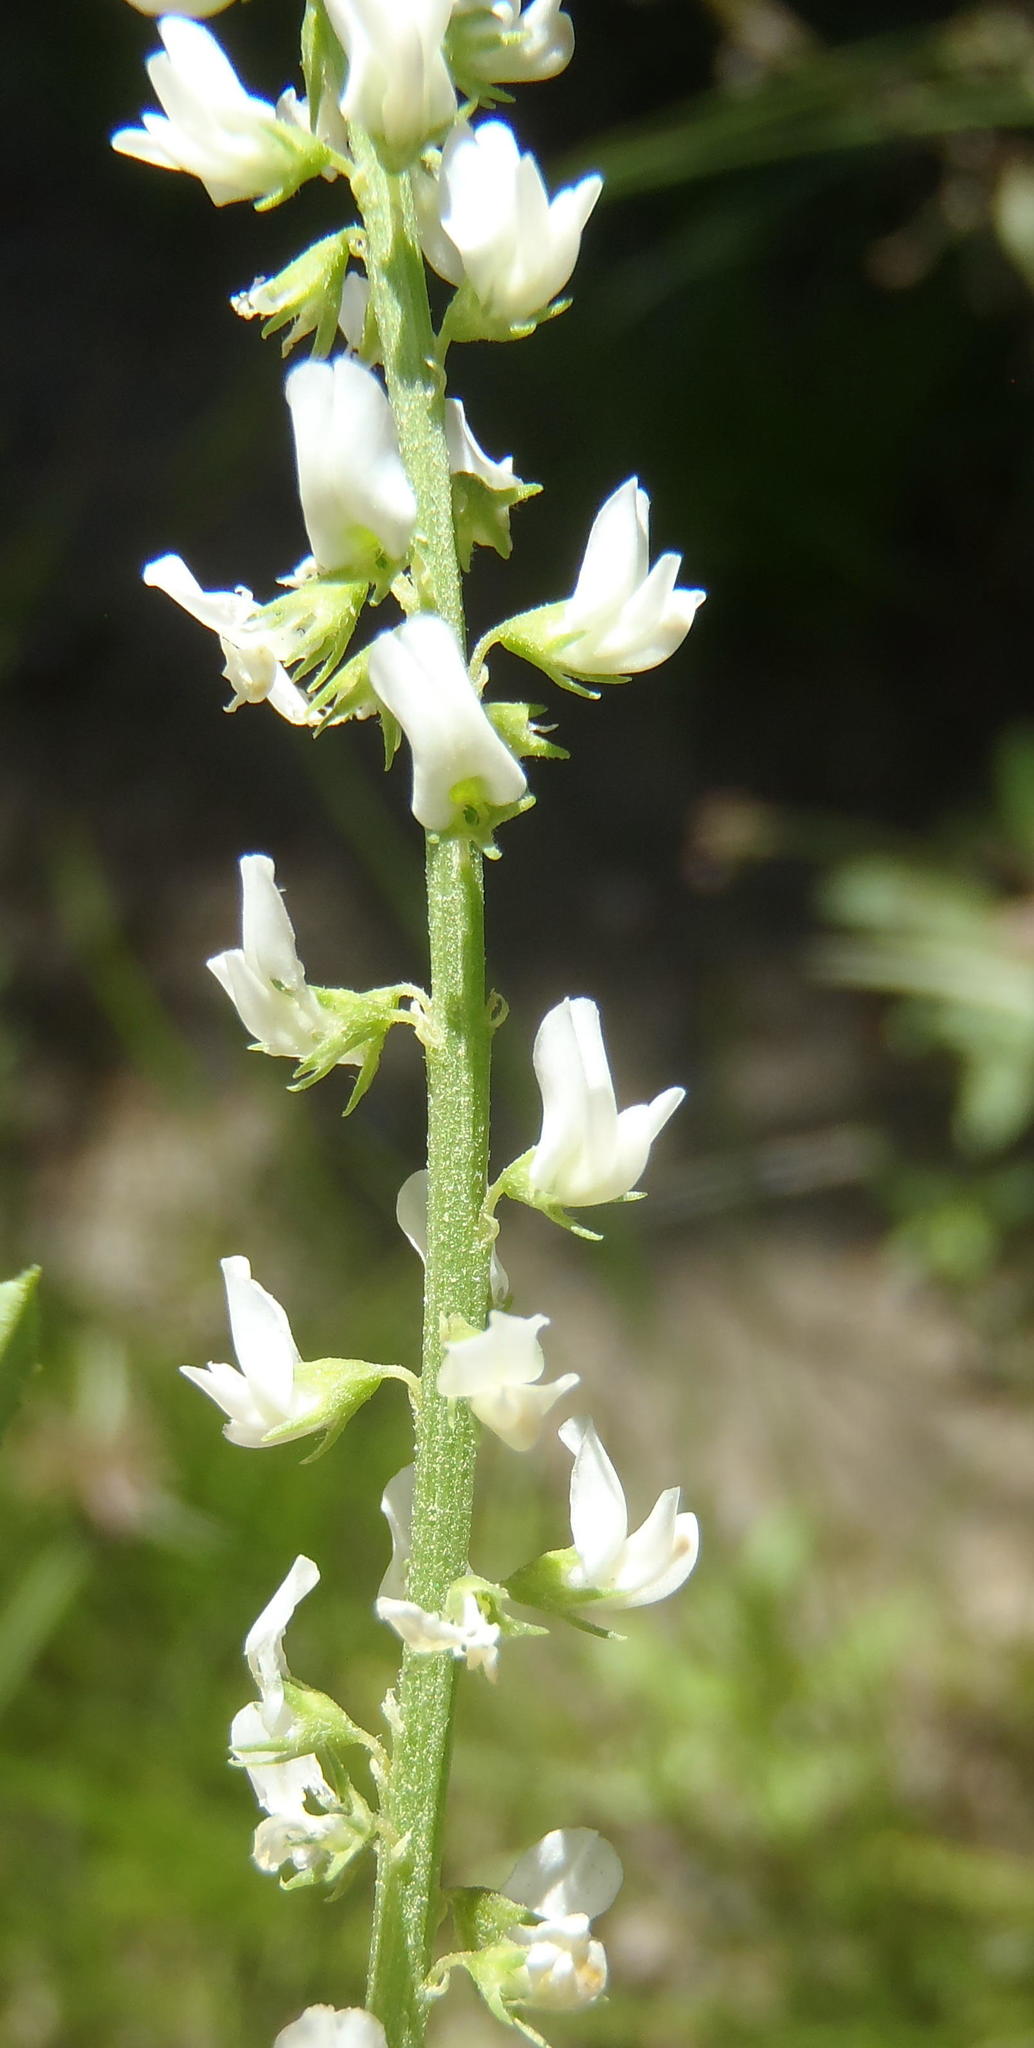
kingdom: Plantae
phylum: Tracheophyta
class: Magnoliopsida
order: Fabales
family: Fabaceae
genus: Melilotus
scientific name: Melilotus albus
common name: White melilot
